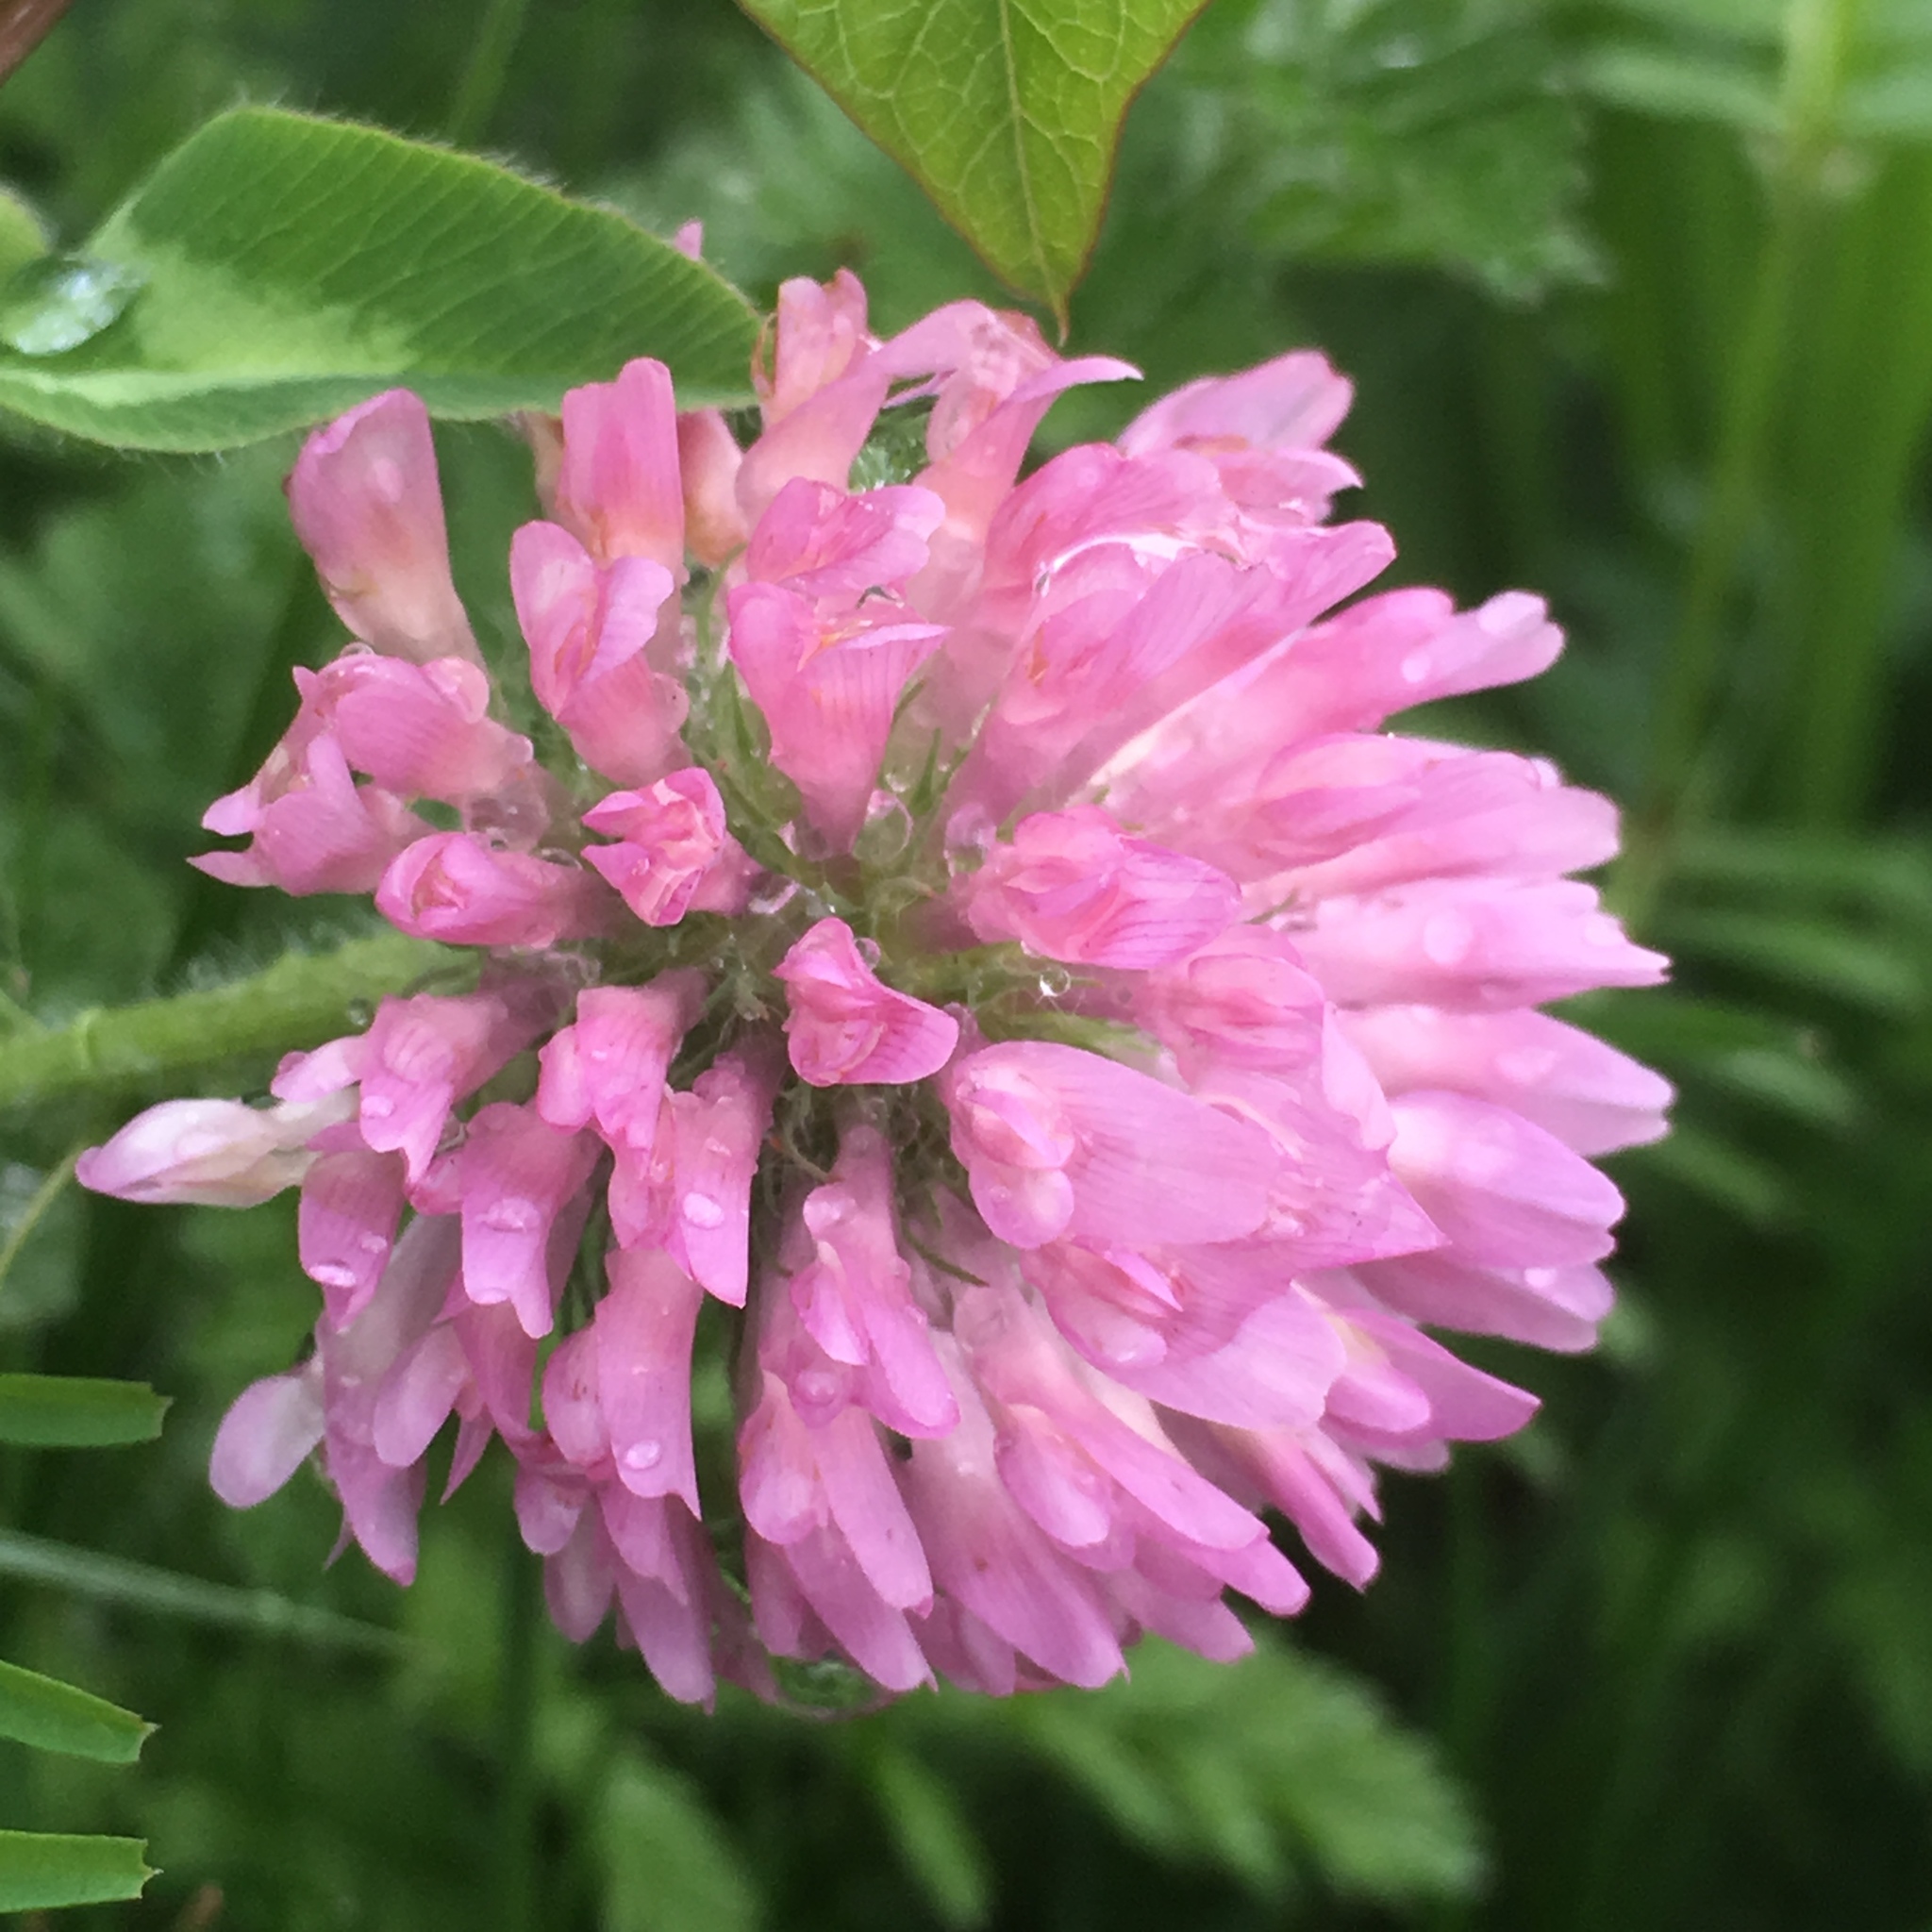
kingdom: Plantae
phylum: Tracheophyta
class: Magnoliopsida
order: Fabales
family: Fabaceae
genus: Trifolium
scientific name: Trifolium pratense
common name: Red clover
